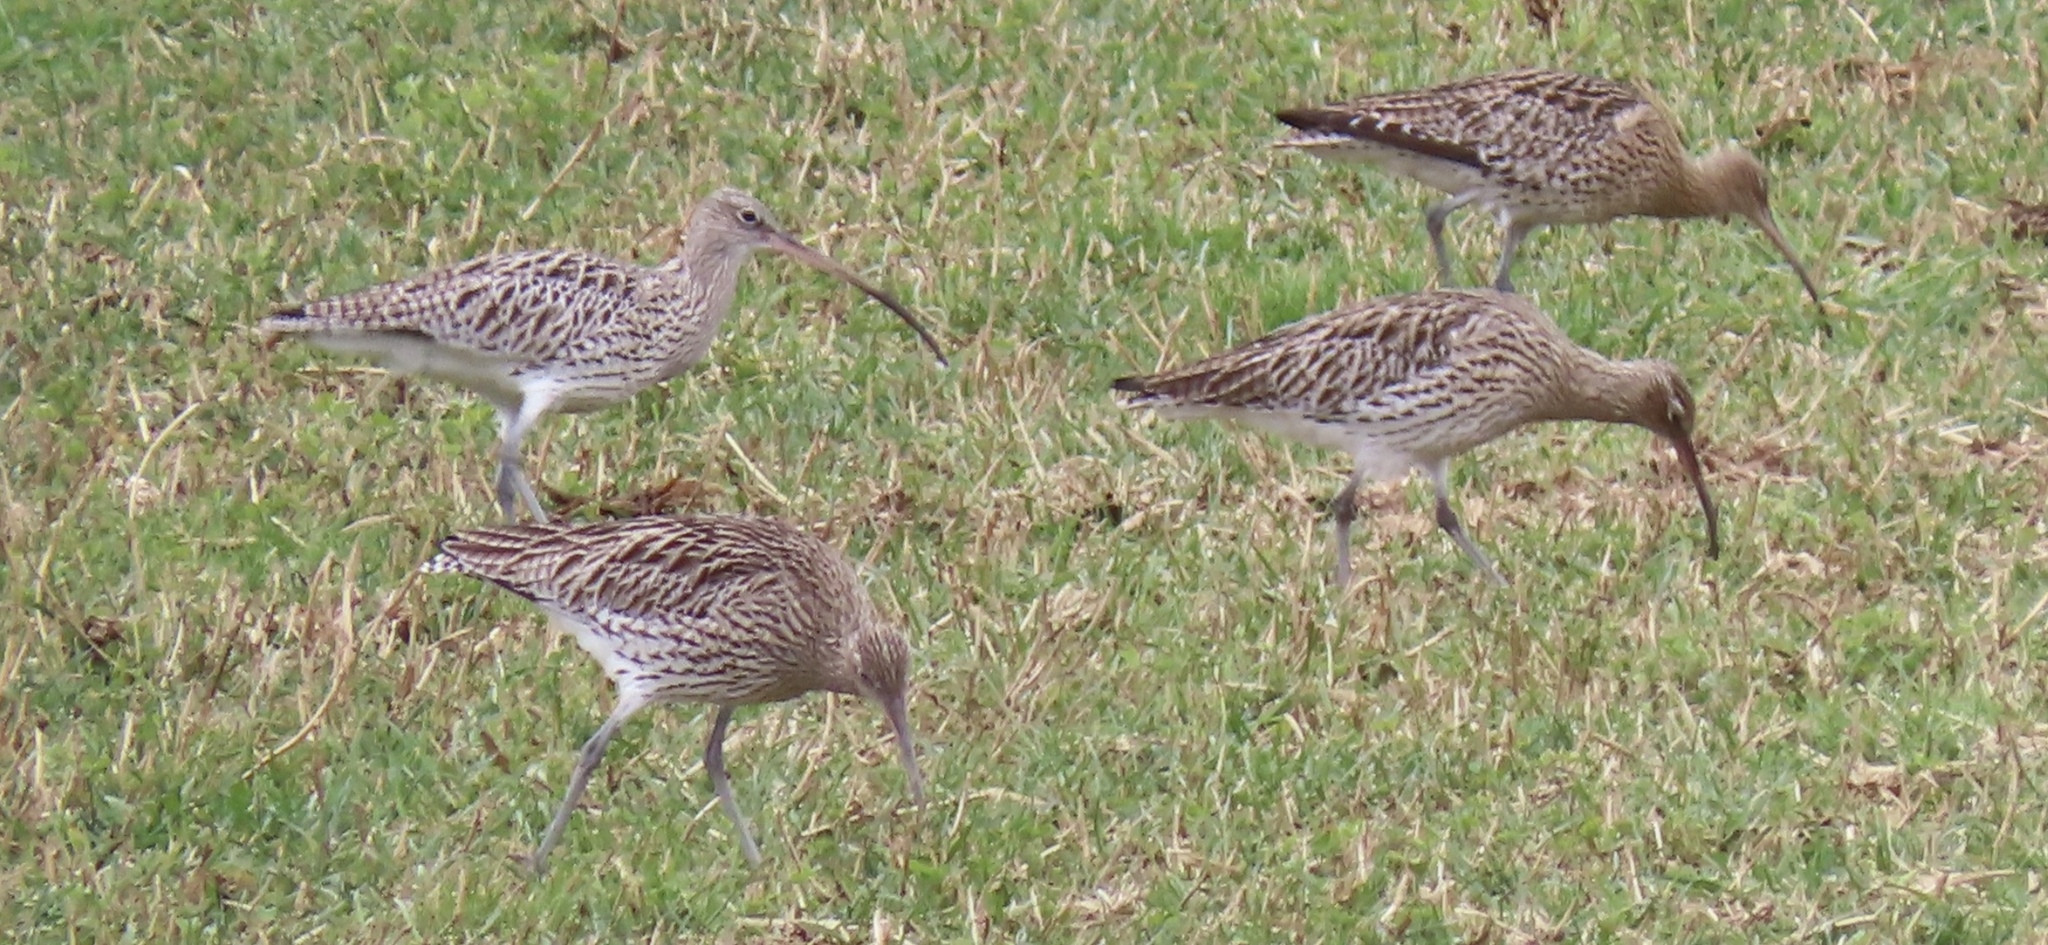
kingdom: Animalia
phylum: Chordata
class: Aves
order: Charadriiformes
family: Scolopacidae
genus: Numenius
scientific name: Numenius arquata
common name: Eurasian curlew
